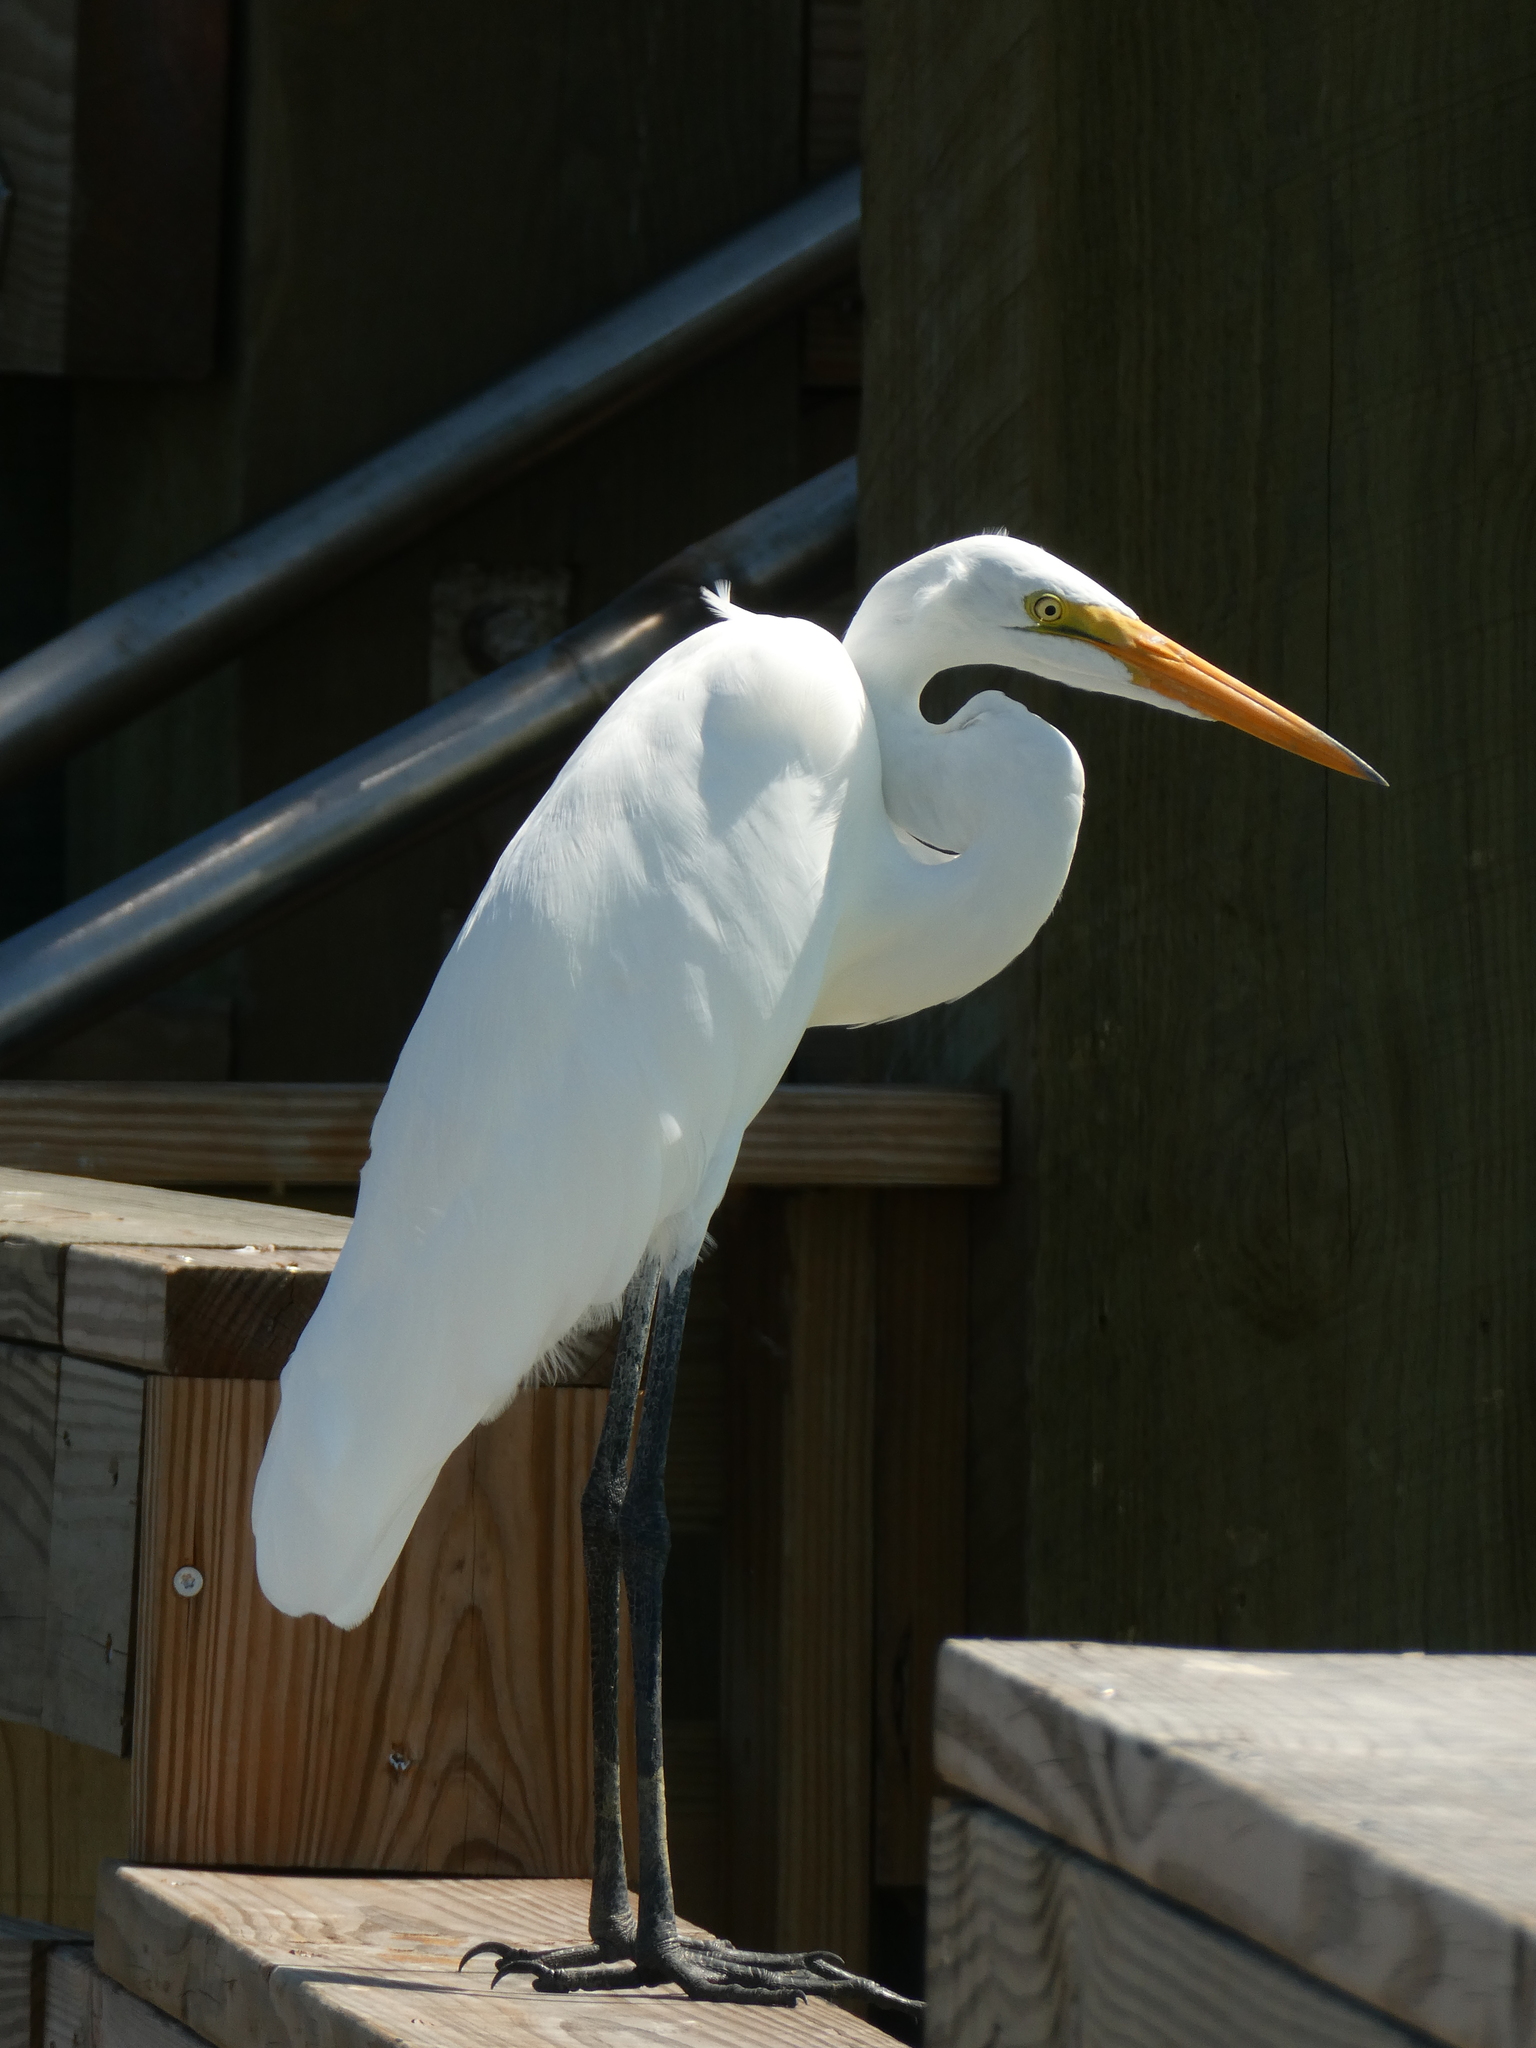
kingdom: Animalia
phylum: Chordata
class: Aves
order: Pelecaniformes
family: Ardeidae
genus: Ardea
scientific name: Ardea alba
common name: Great egret
